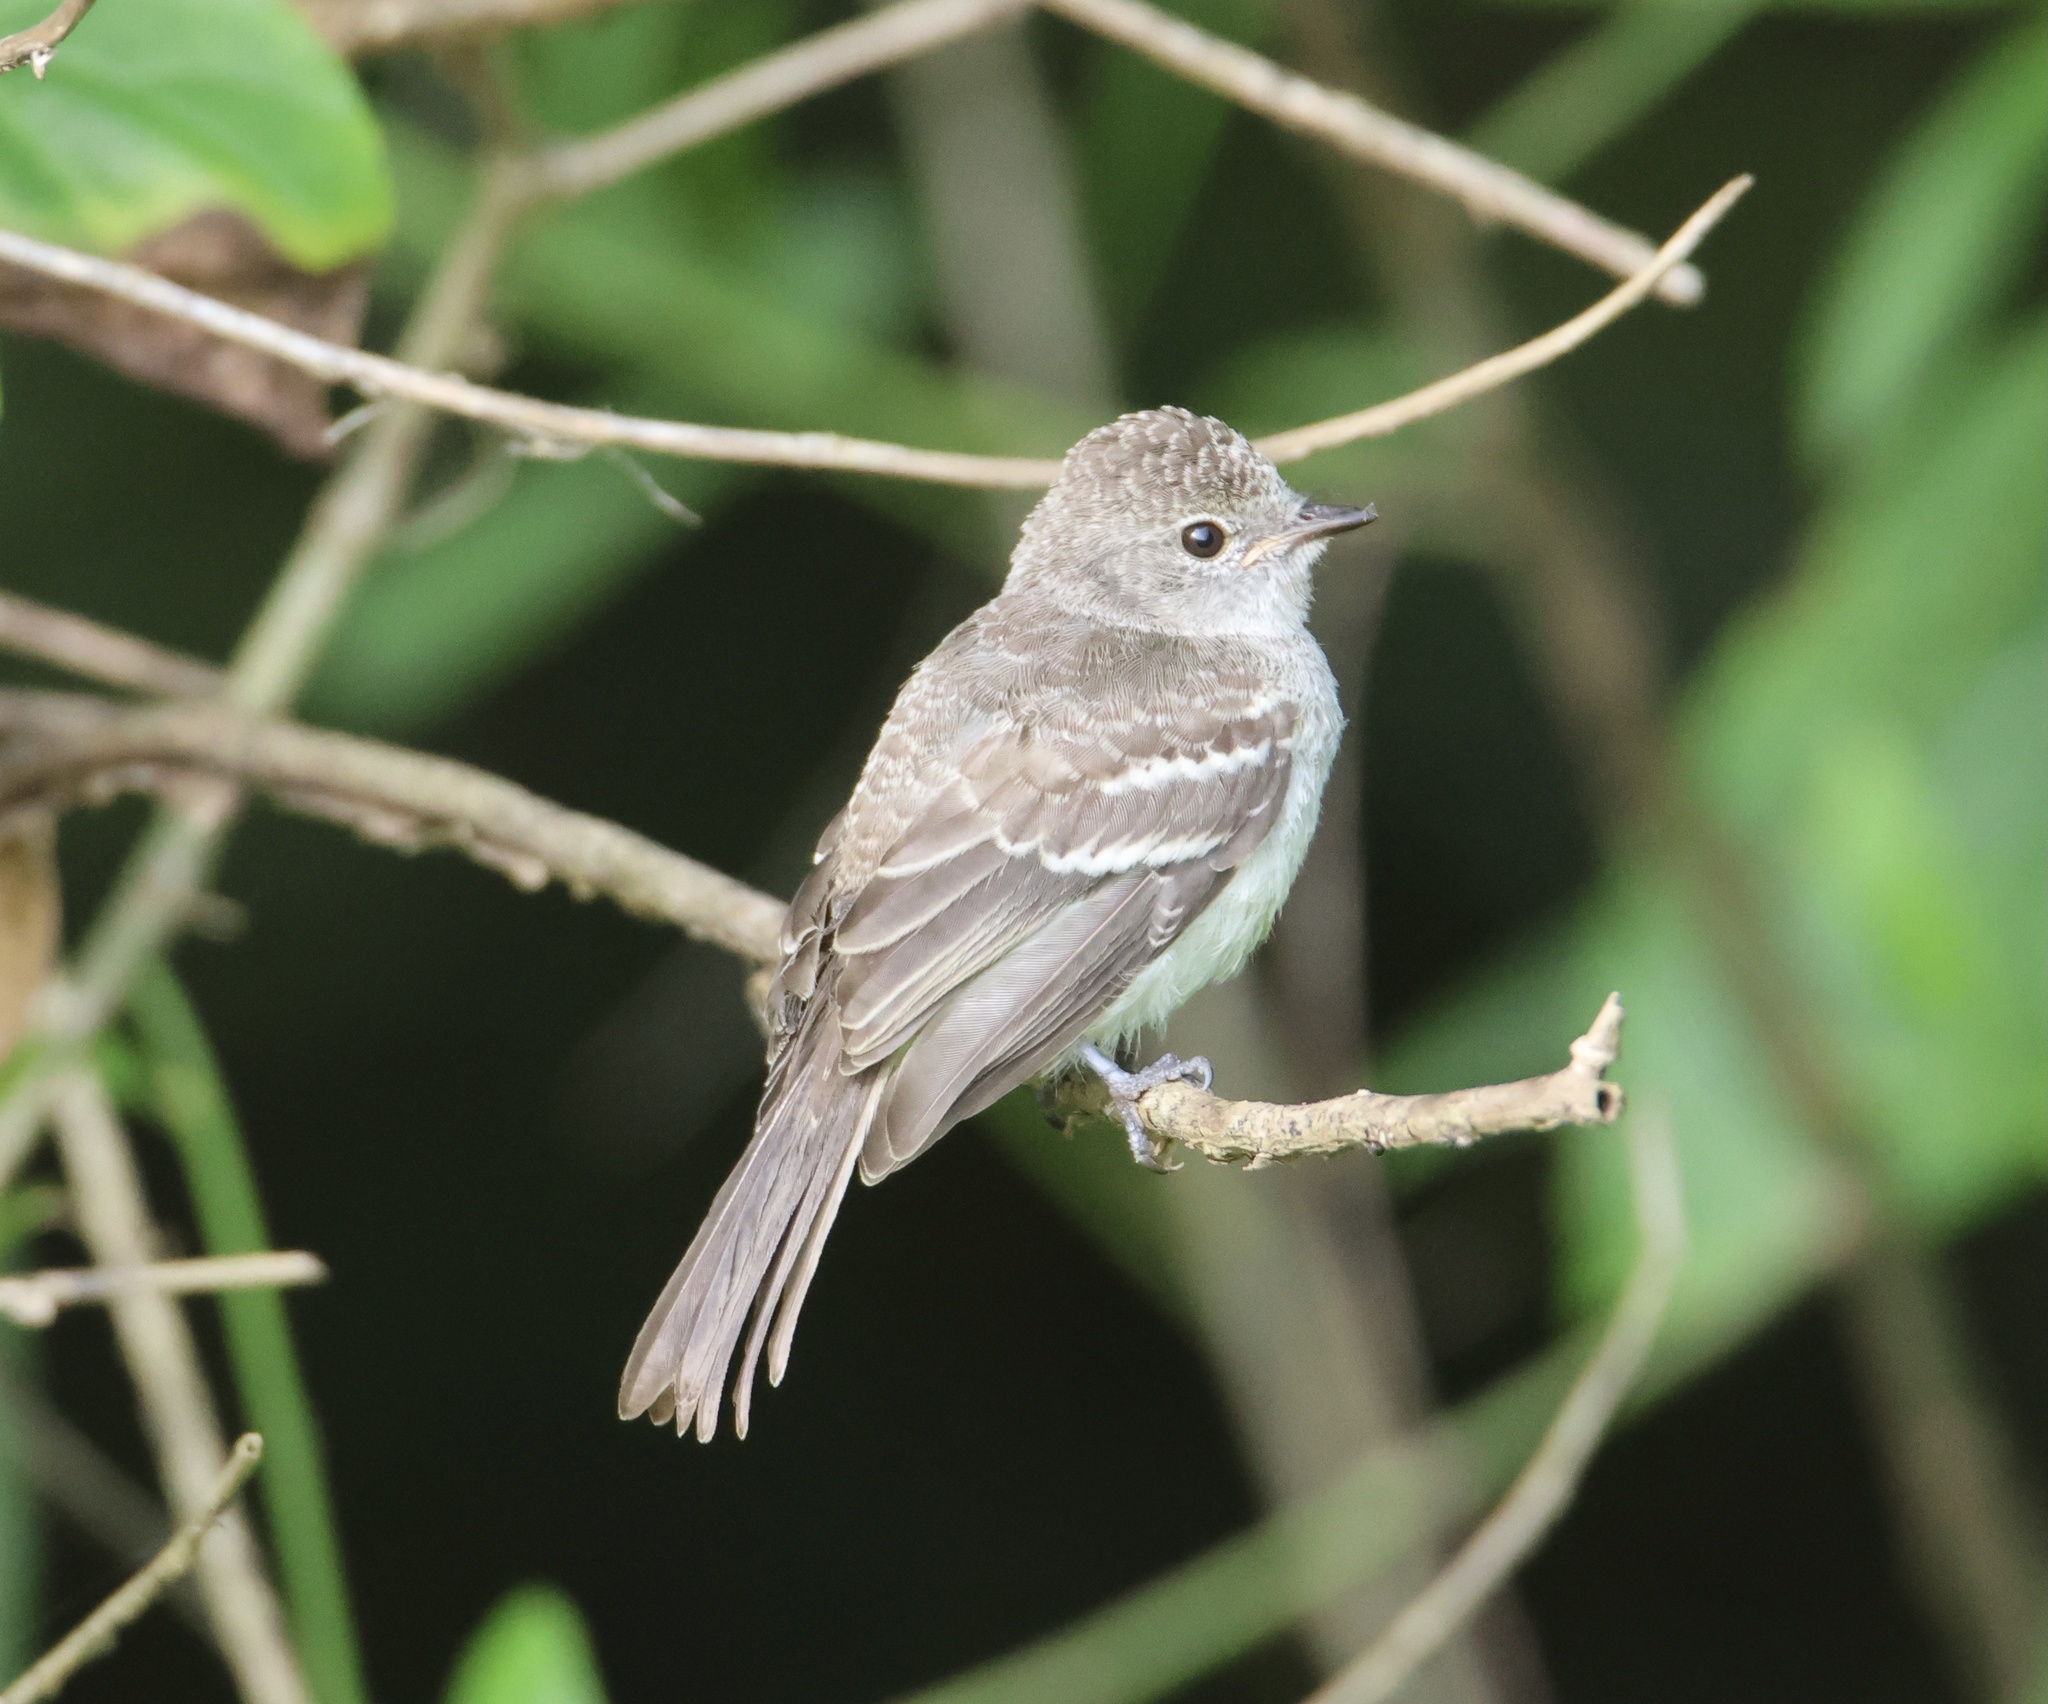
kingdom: Animalia
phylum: Chordata
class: Aves
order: Passeriformes
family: Tyrannidae
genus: Sublegatus
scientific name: Sublegatus arenarum
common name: Northern scrub-flycatcher
